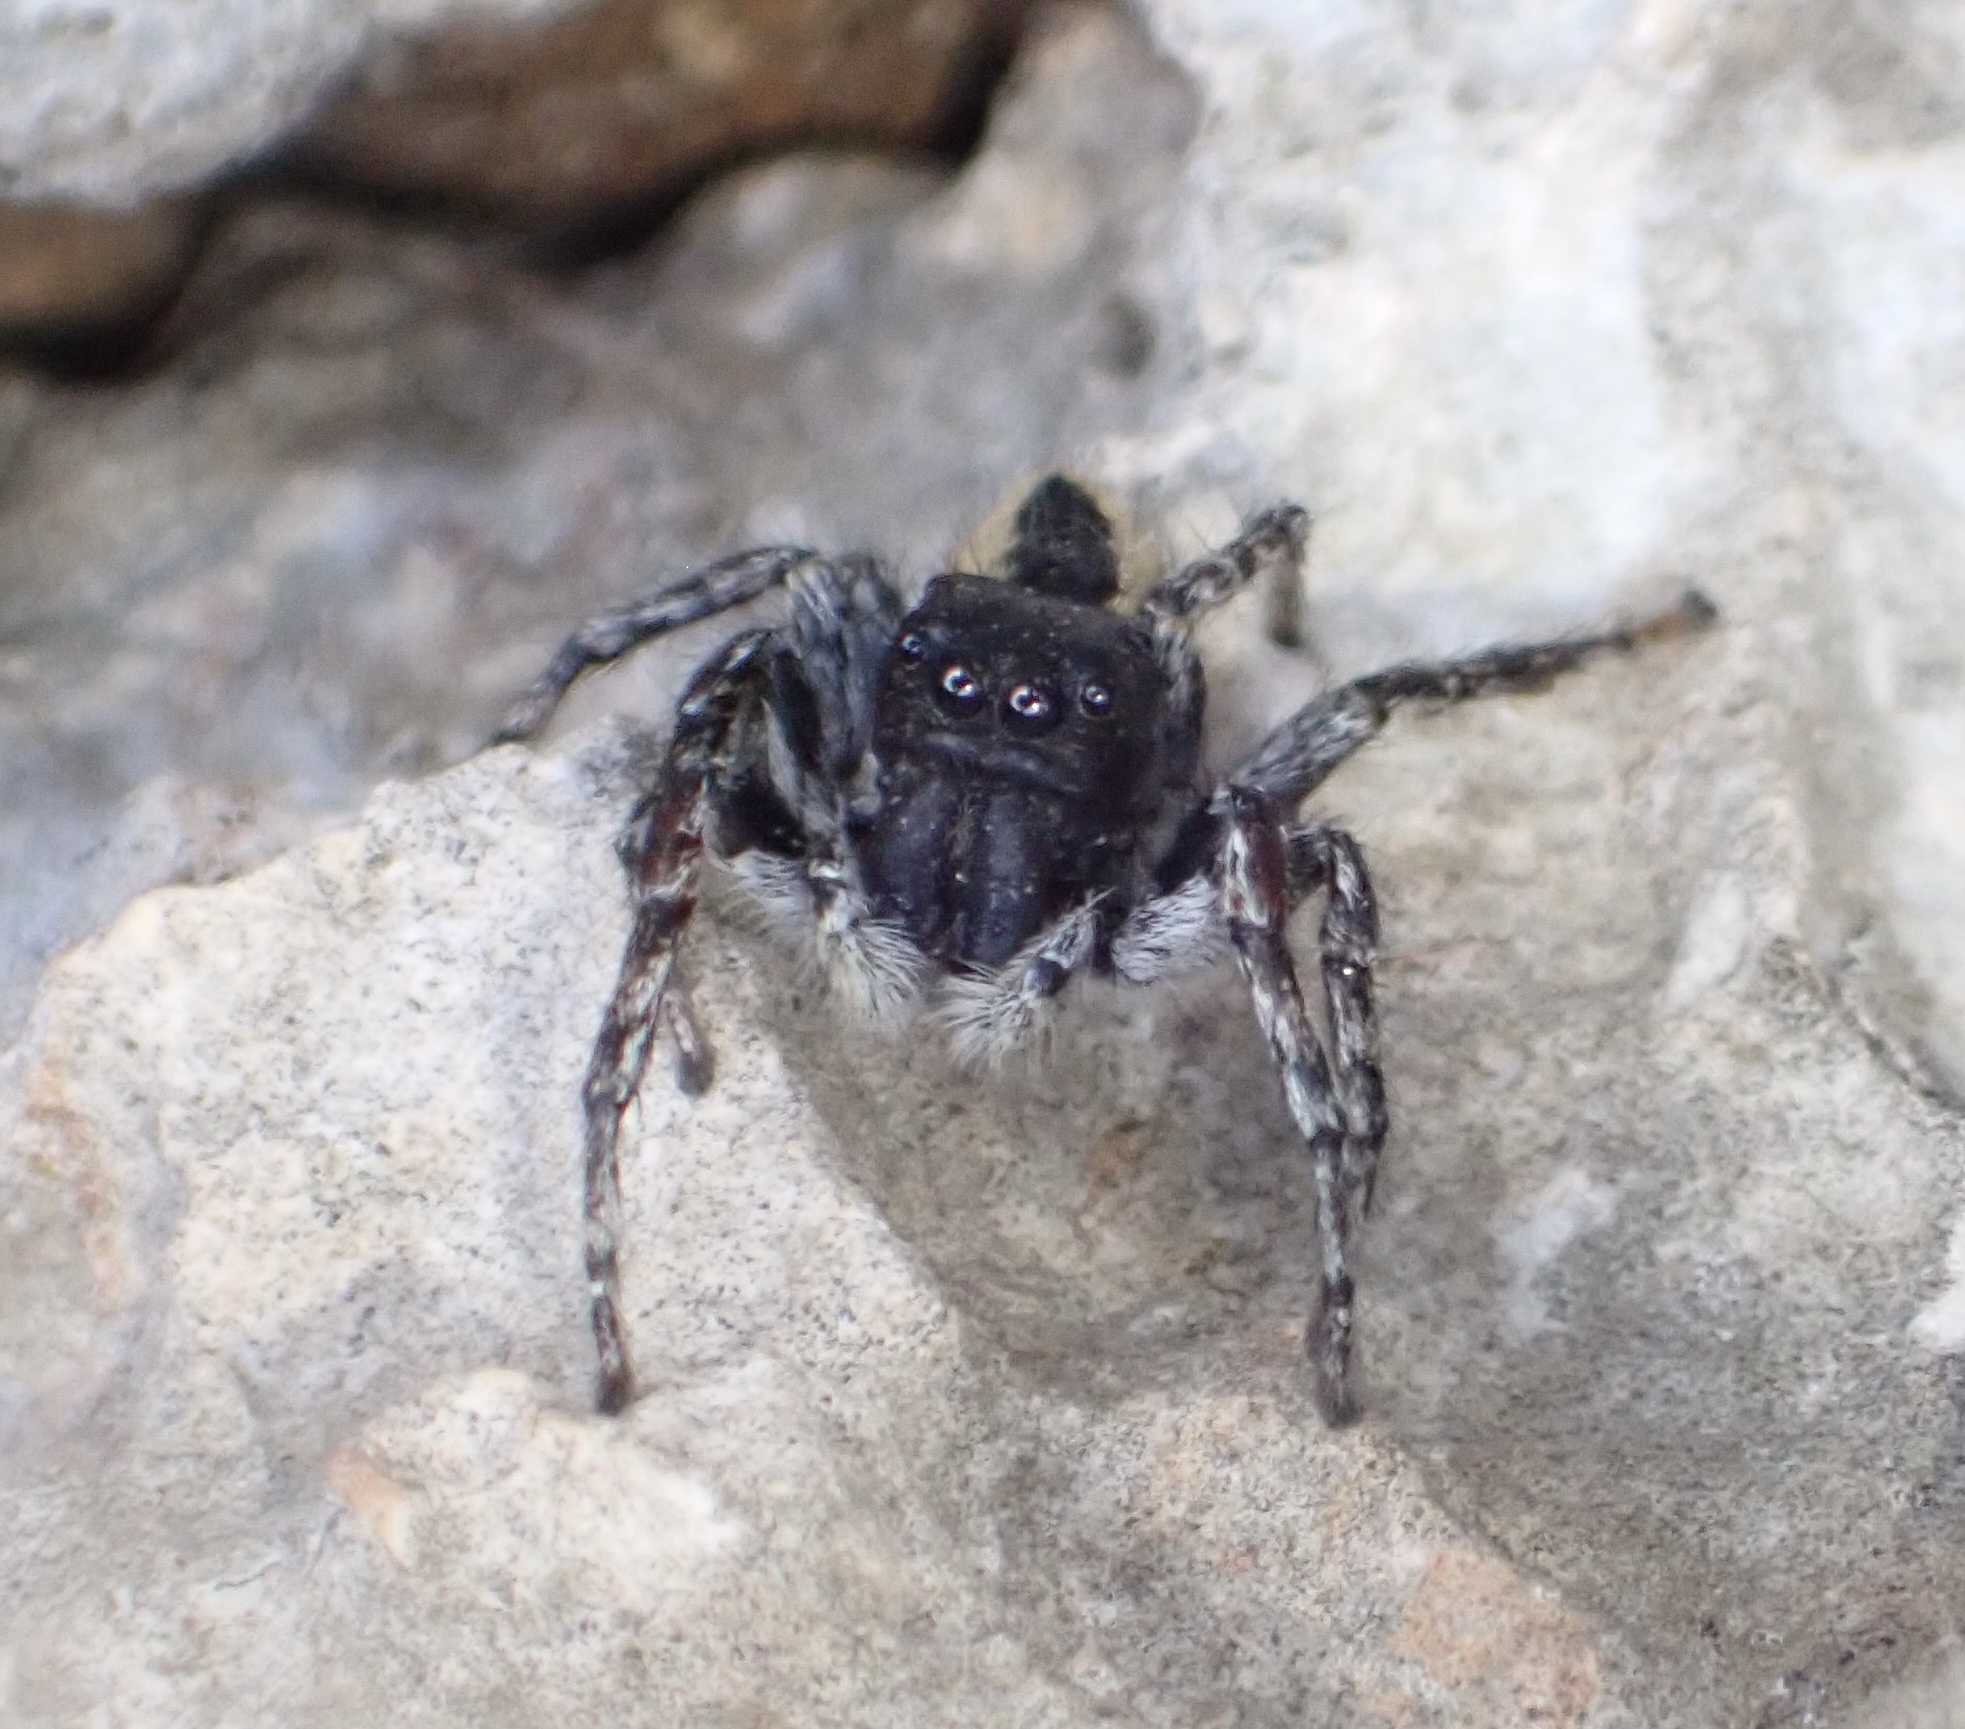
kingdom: Animalia
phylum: Arthropoda
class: Arachnida
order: Araneae
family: Salticidae
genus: Philaeus
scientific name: Philaeus chrysops
